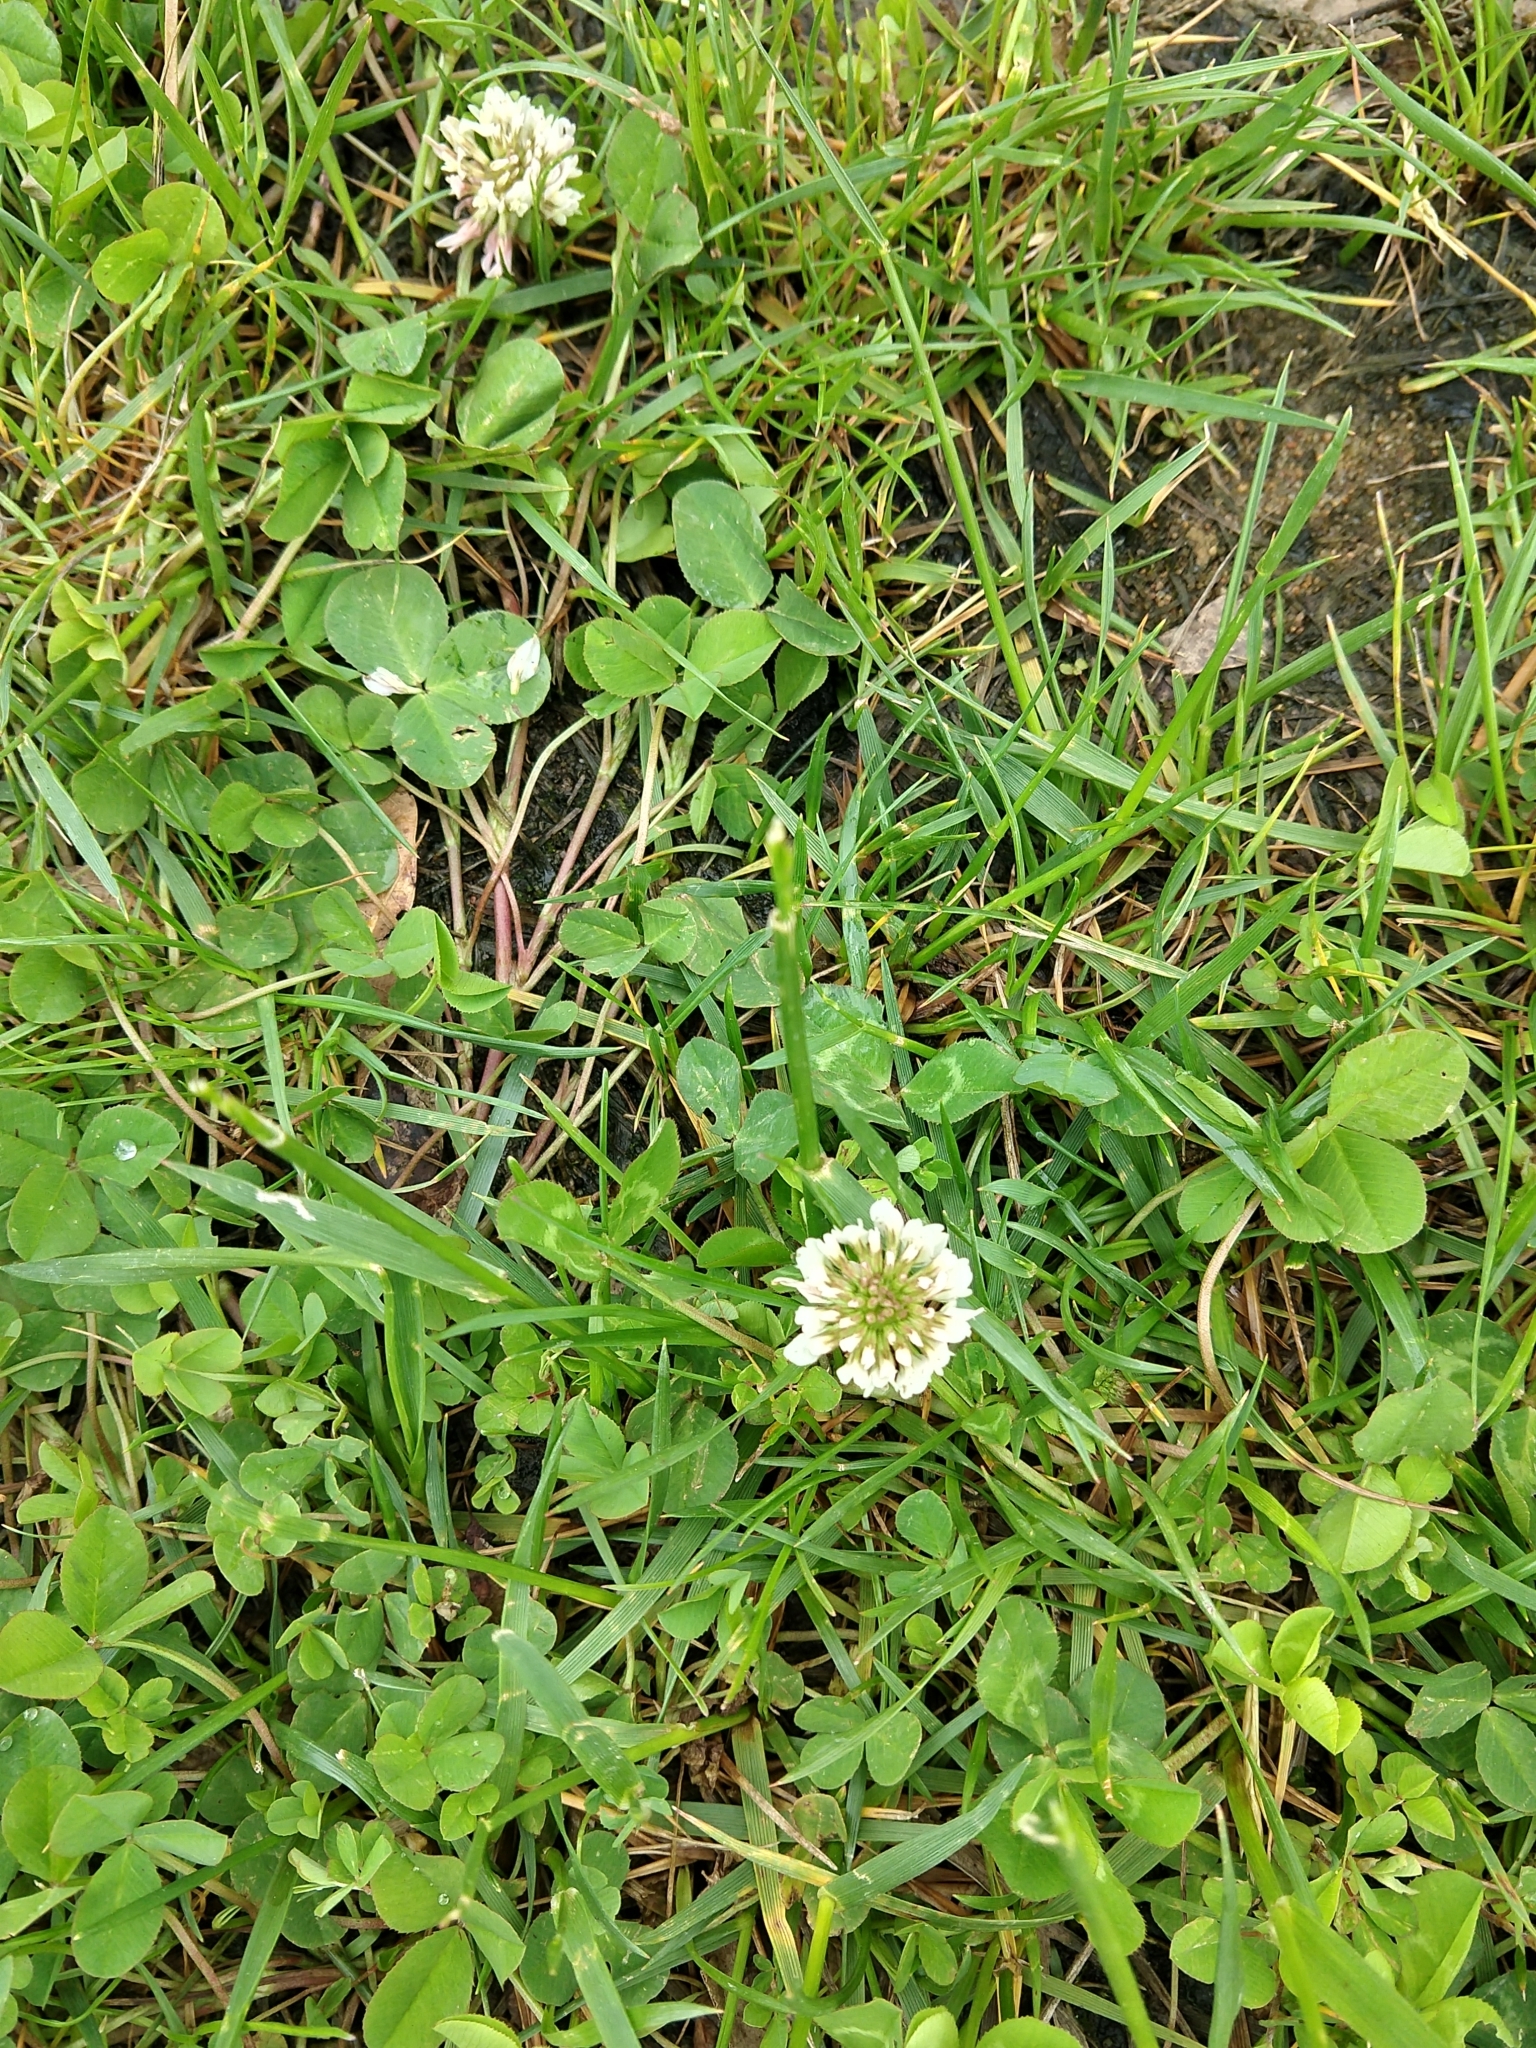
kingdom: Plantae
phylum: Tracheophyta
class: Magnoliopsida
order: Fabales
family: Fabaceae
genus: Trifolium
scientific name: Trifolium repens
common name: White clover
